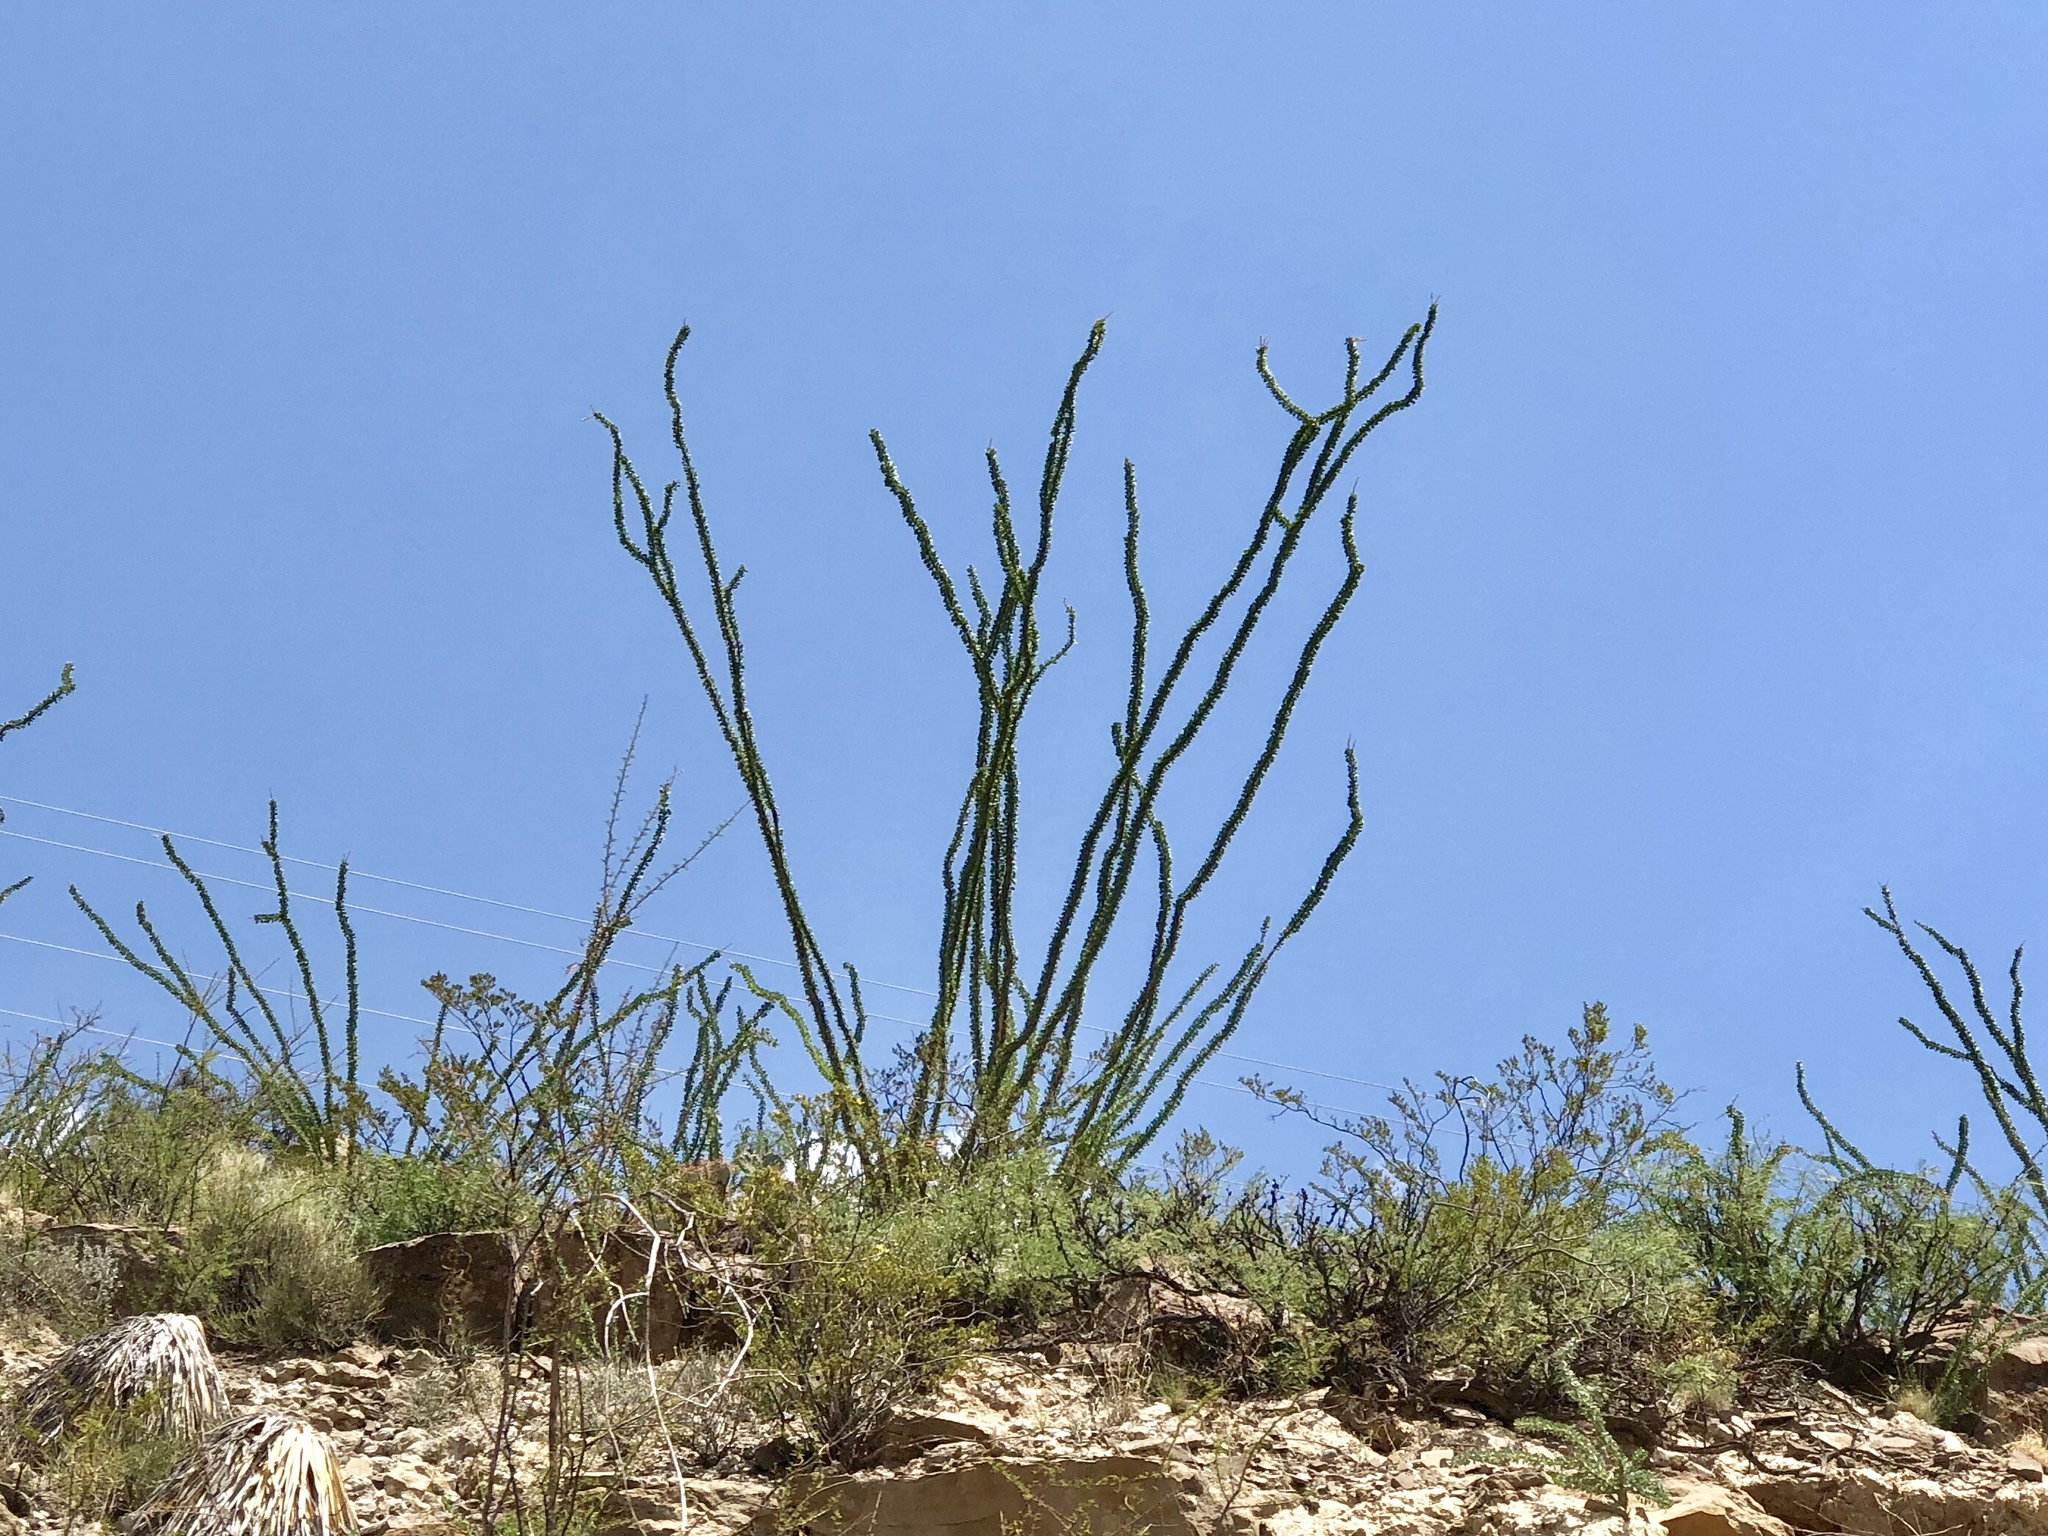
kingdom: Plantae
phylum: Tracheophyta
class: Magnoliopsida
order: Ericales
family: Fouquieriaceae
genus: Fouquieria
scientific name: Fouquieria splendens
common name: Vine-cactus
